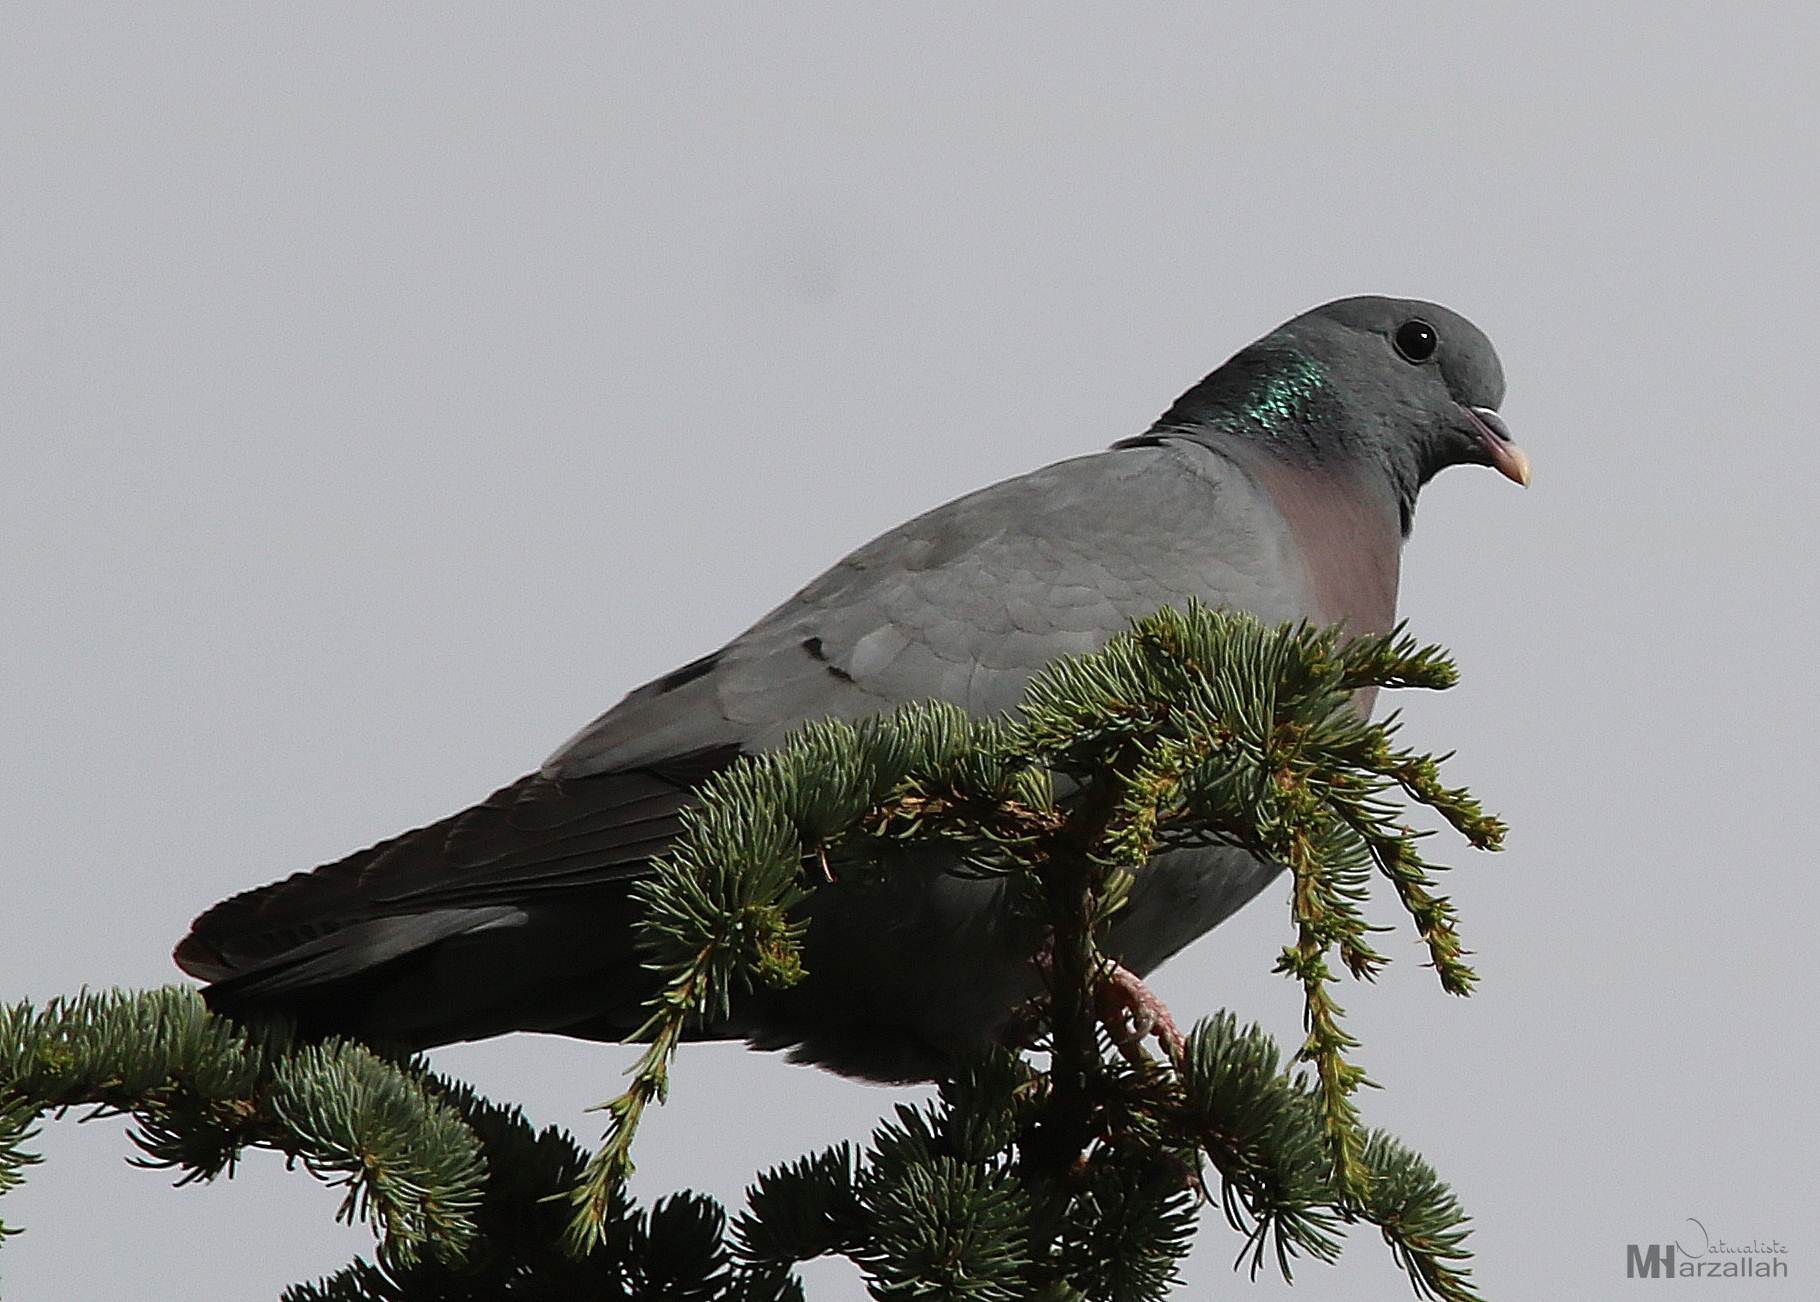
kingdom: Animalia
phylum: Chordata
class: Aves
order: Columbiformes
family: Columbidae
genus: Columba
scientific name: Columba oenas
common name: Stock dove
